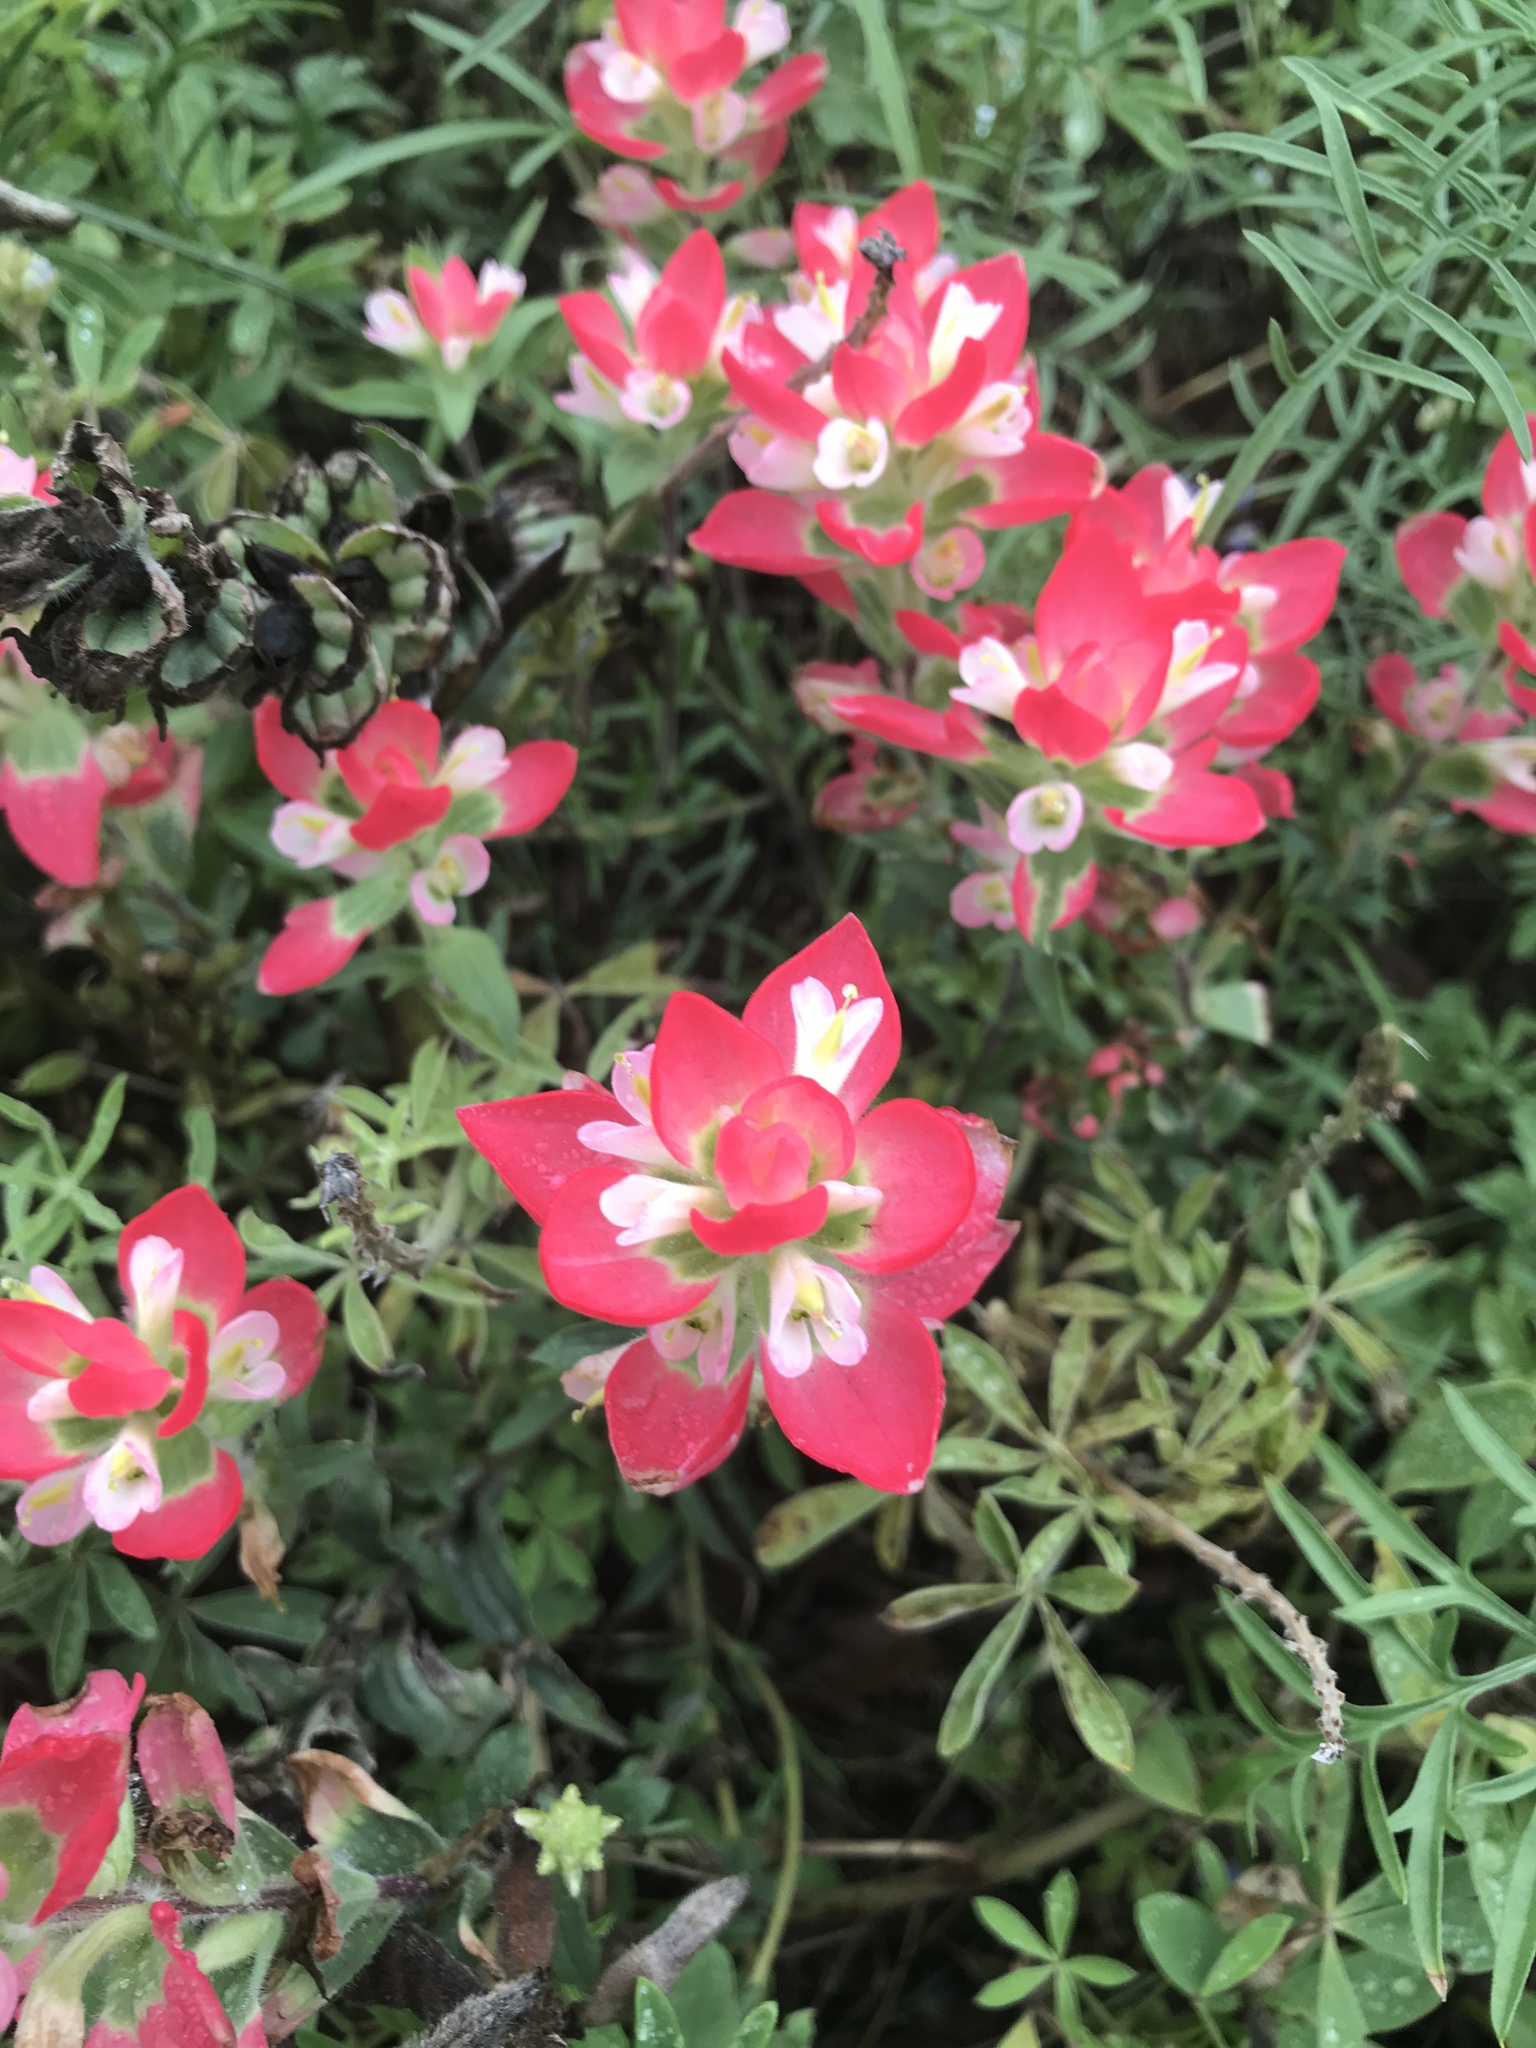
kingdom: Plantae
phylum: Tracheophyta
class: Magnoliopsida
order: Lamiales
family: Orobanchaceae
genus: Castilleja
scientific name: Castilleja indivisa
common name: Texas paintbrush
